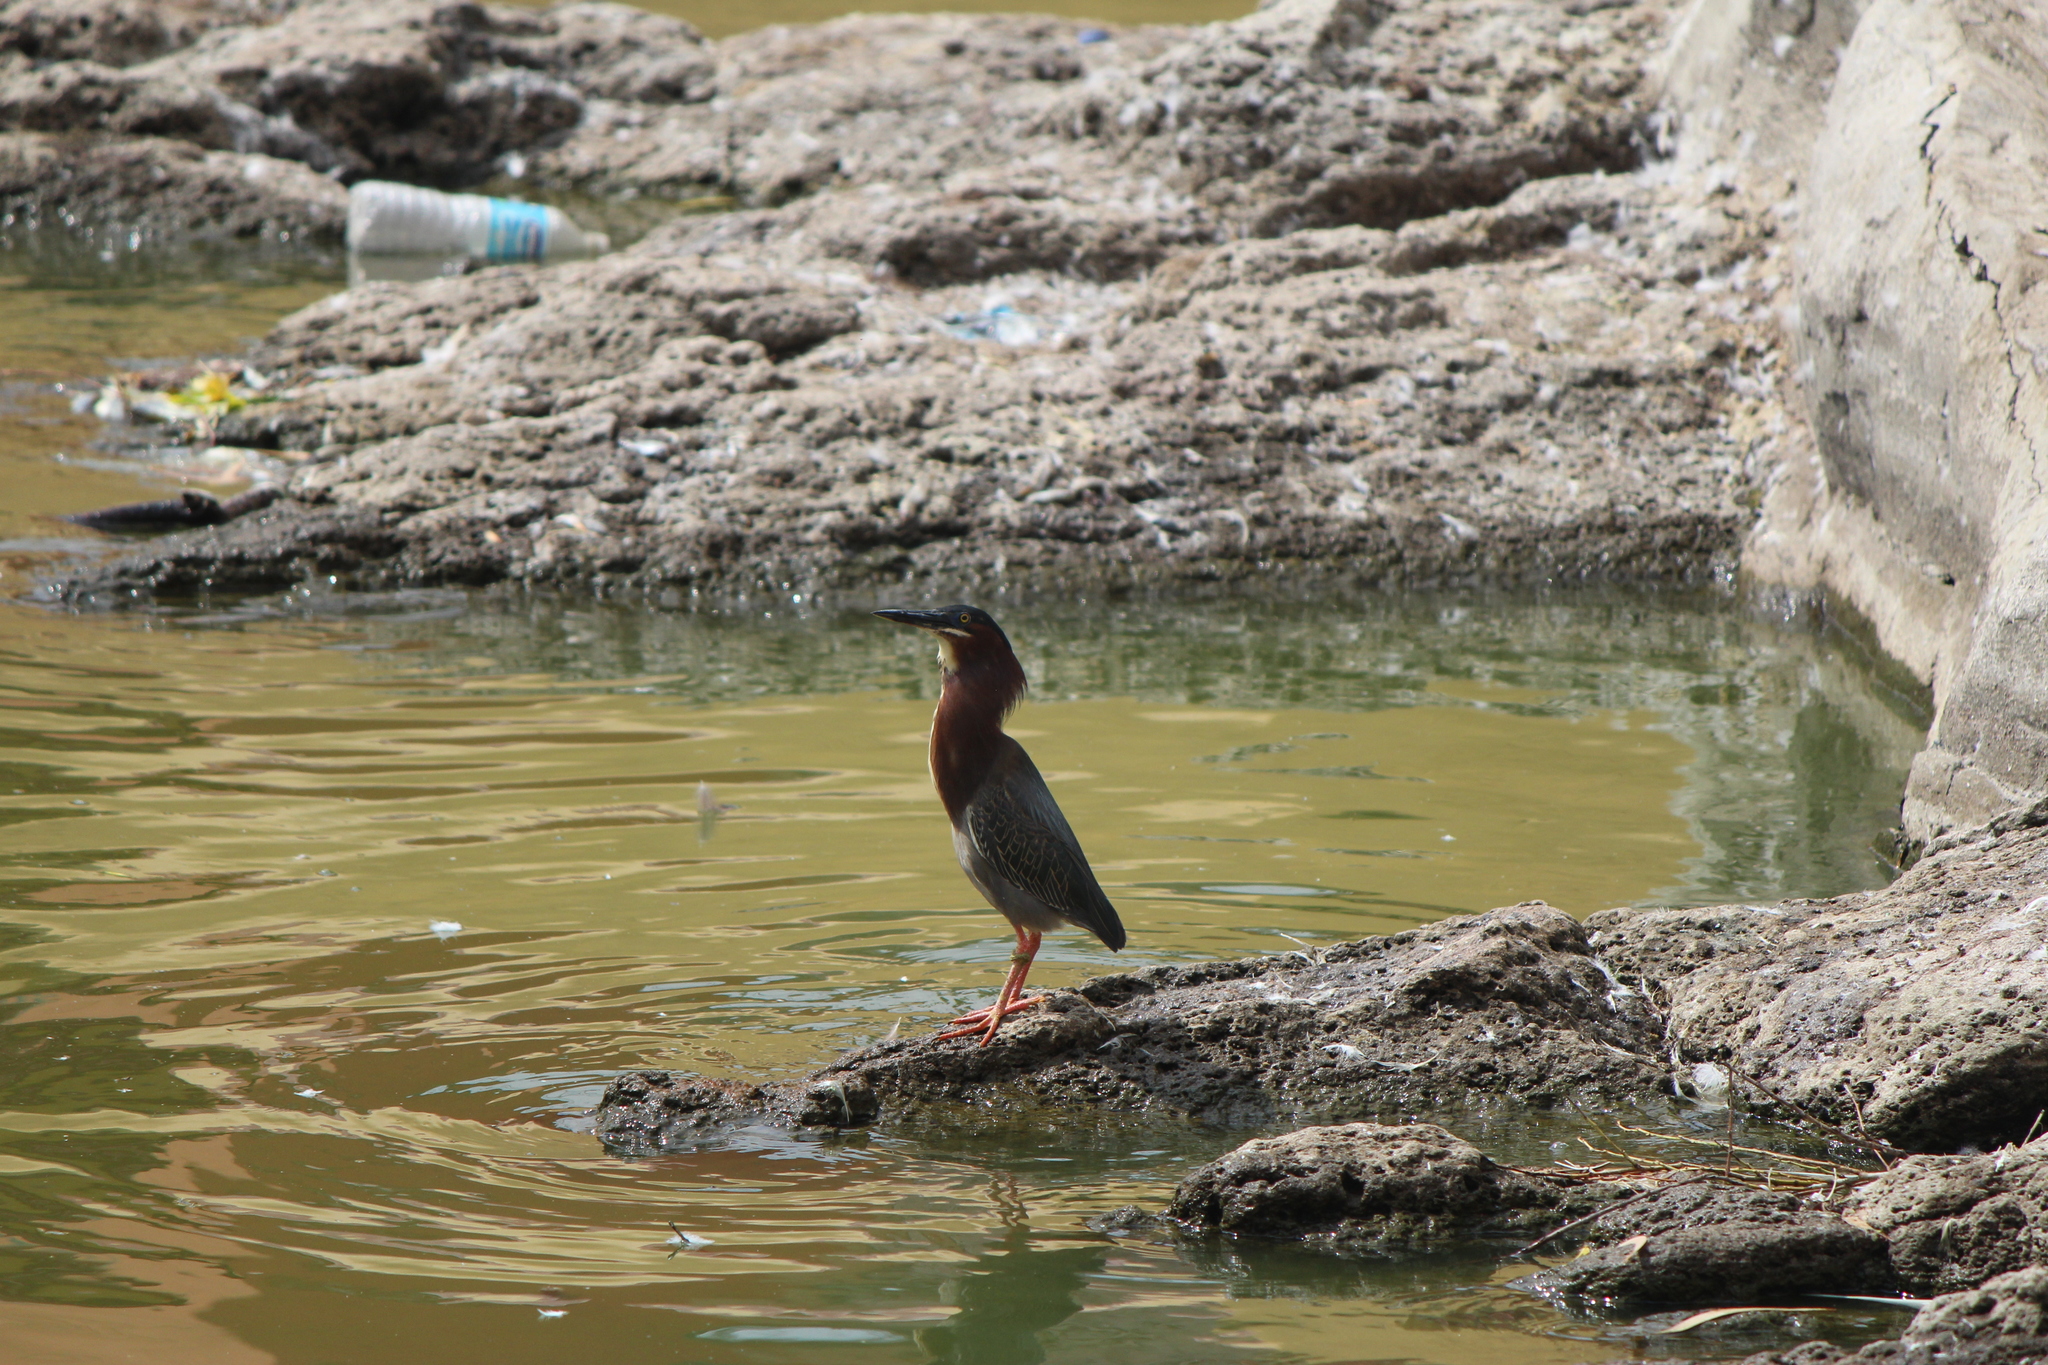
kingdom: Animalia
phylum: Chordata
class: Aves
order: Pelecaniformes
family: Ardeidae
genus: Butorides
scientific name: Butorides virescens
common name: Green heron
